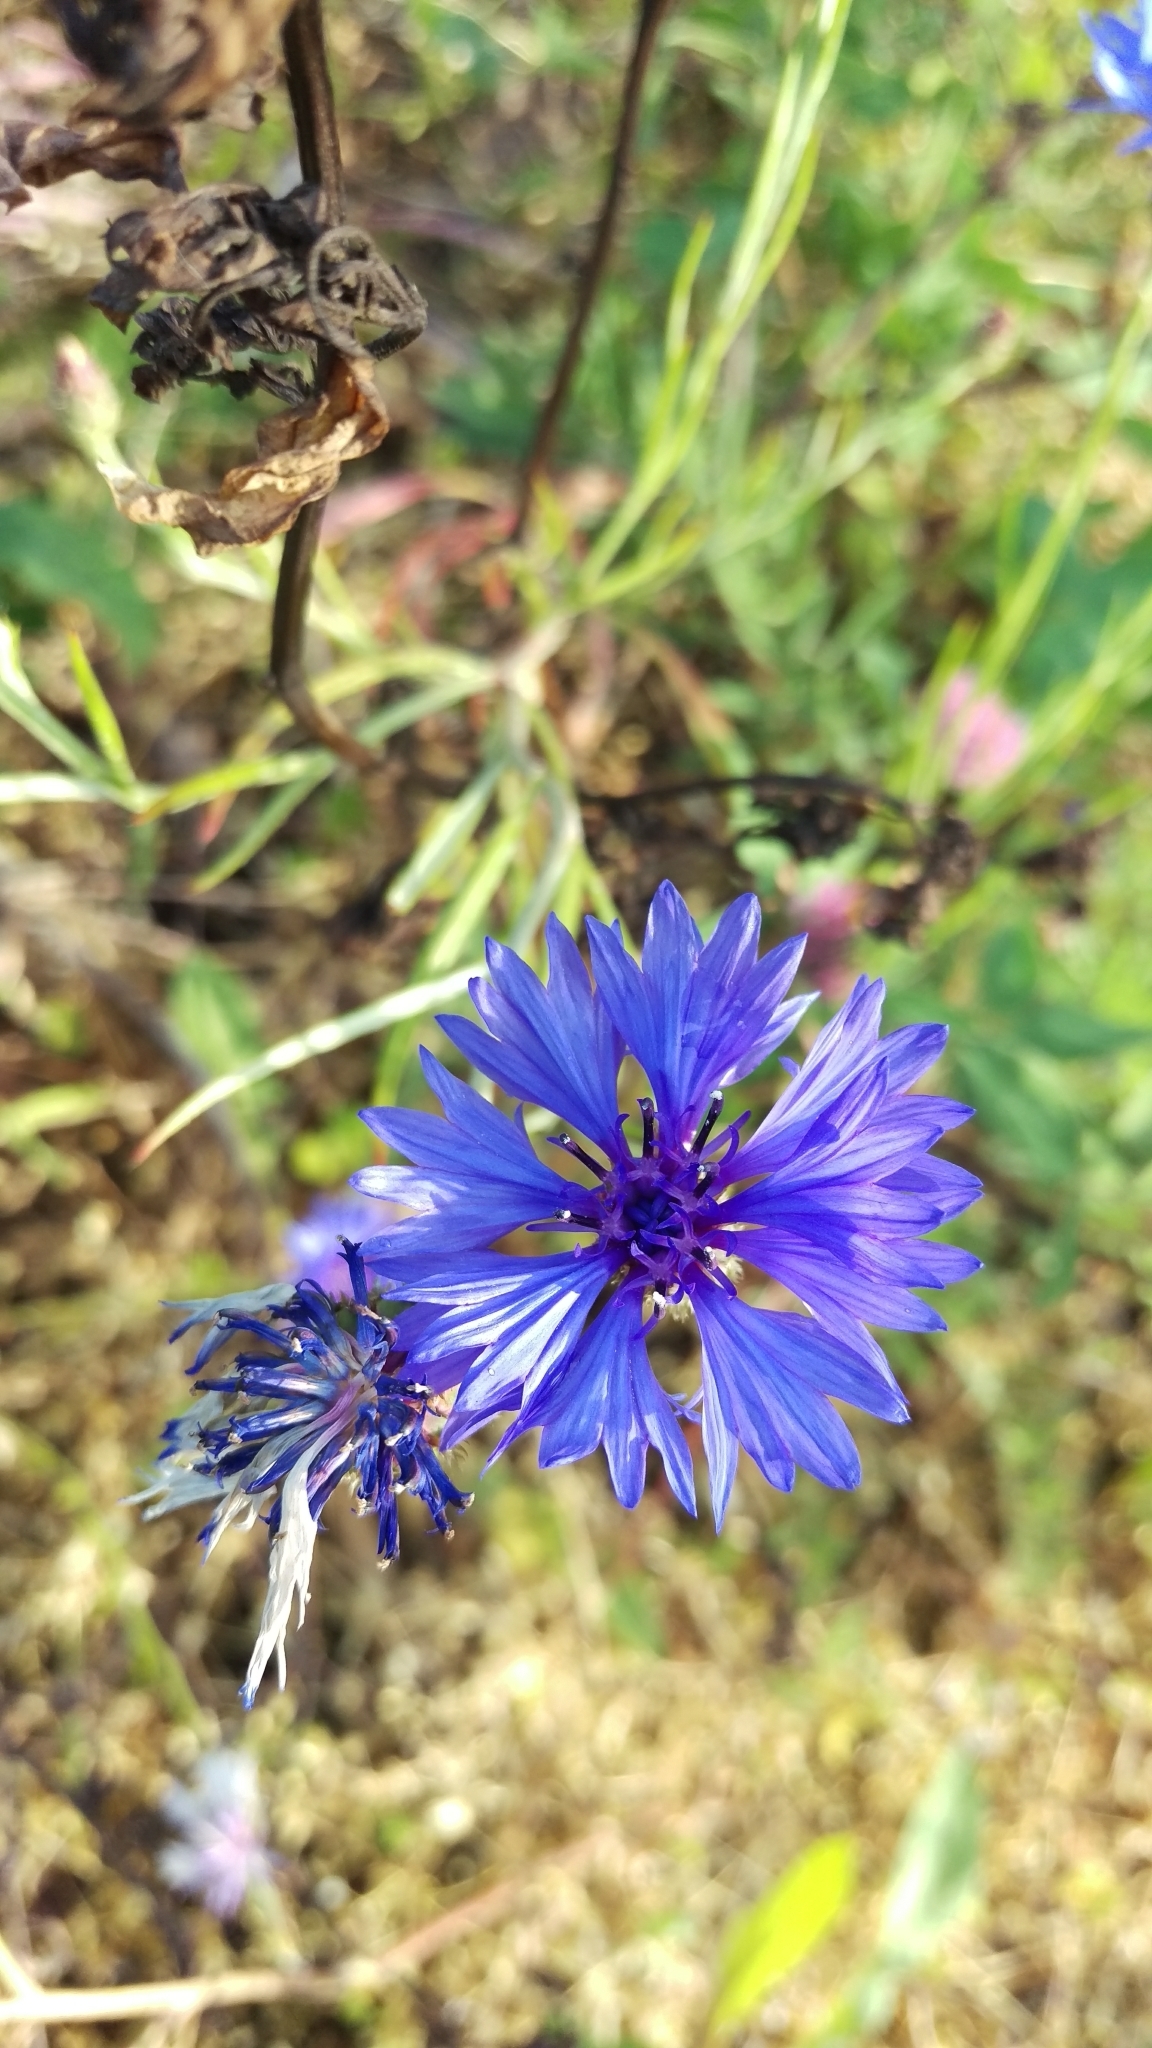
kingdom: Plantae
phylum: Tracheophyta
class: Magnoliopsida
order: Asterales
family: Asteraceae
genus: Centaurea
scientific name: Centaurea cyanus
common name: Cornflower
